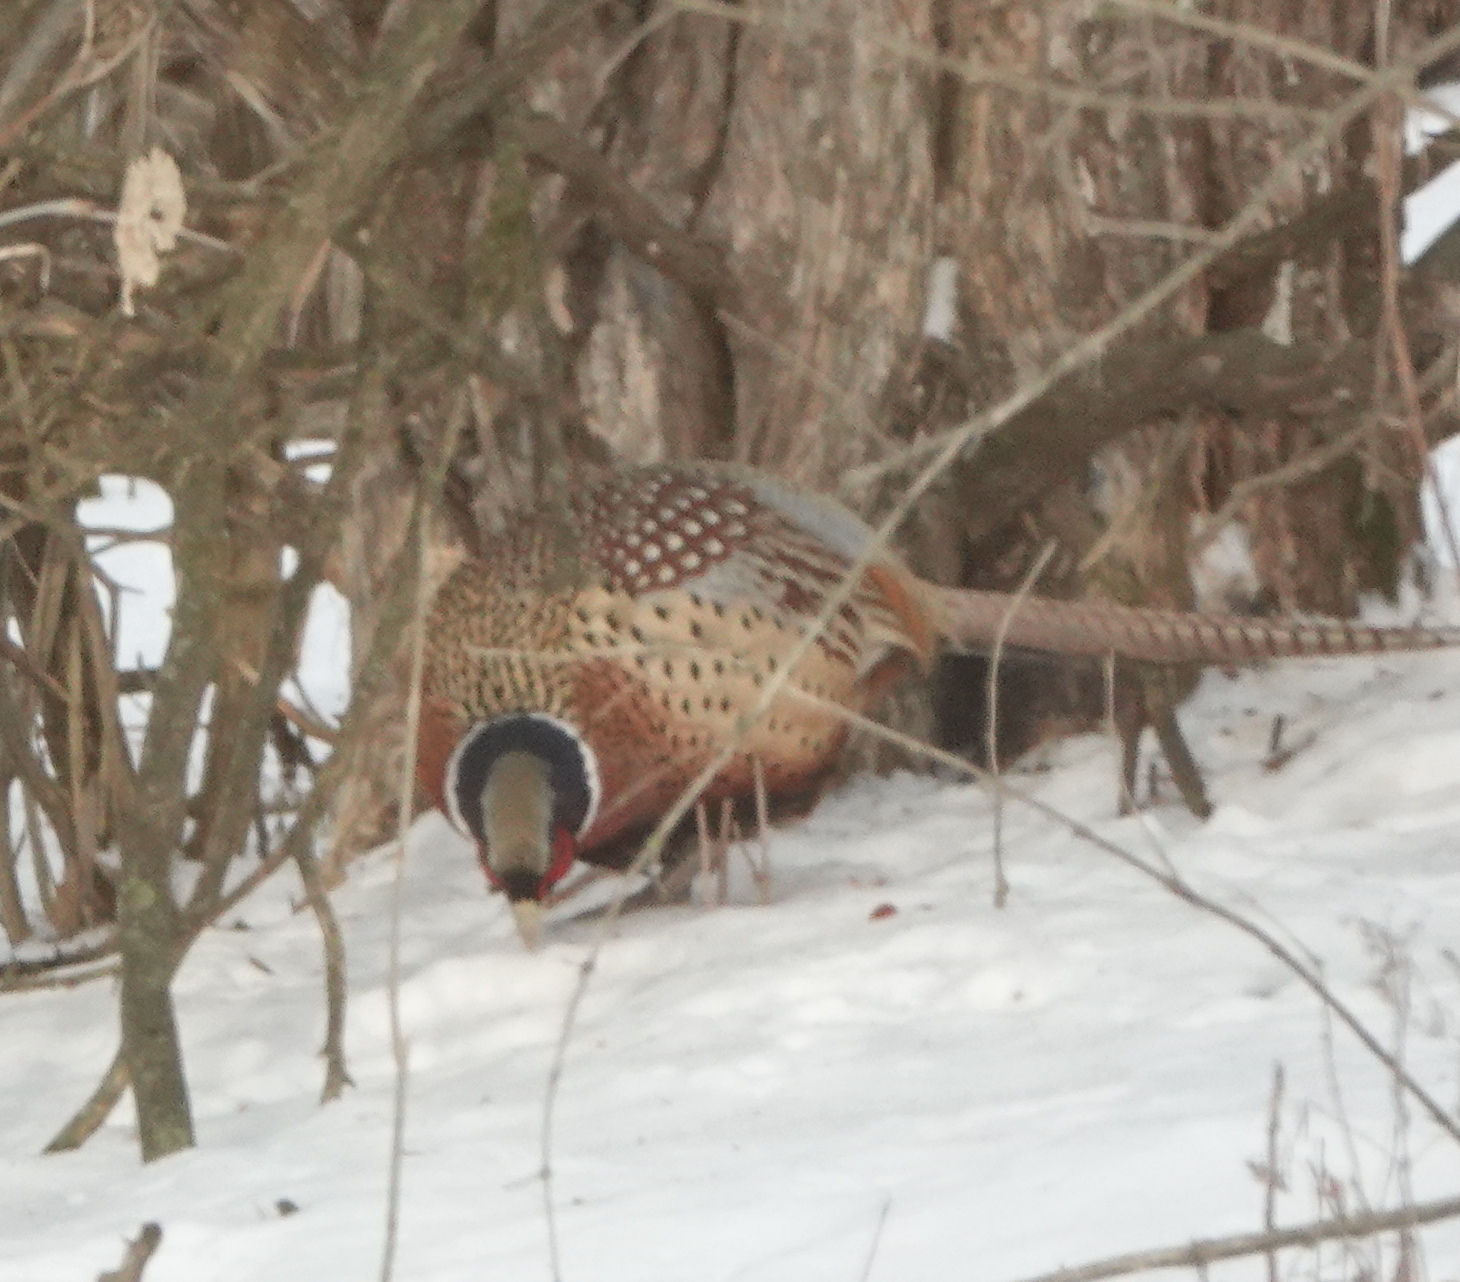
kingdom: Animalia
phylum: Chordata
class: Aves
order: Galliformes
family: Phasianidae
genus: Phasianus
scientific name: Phasianus colchicus
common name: Common pheasant
